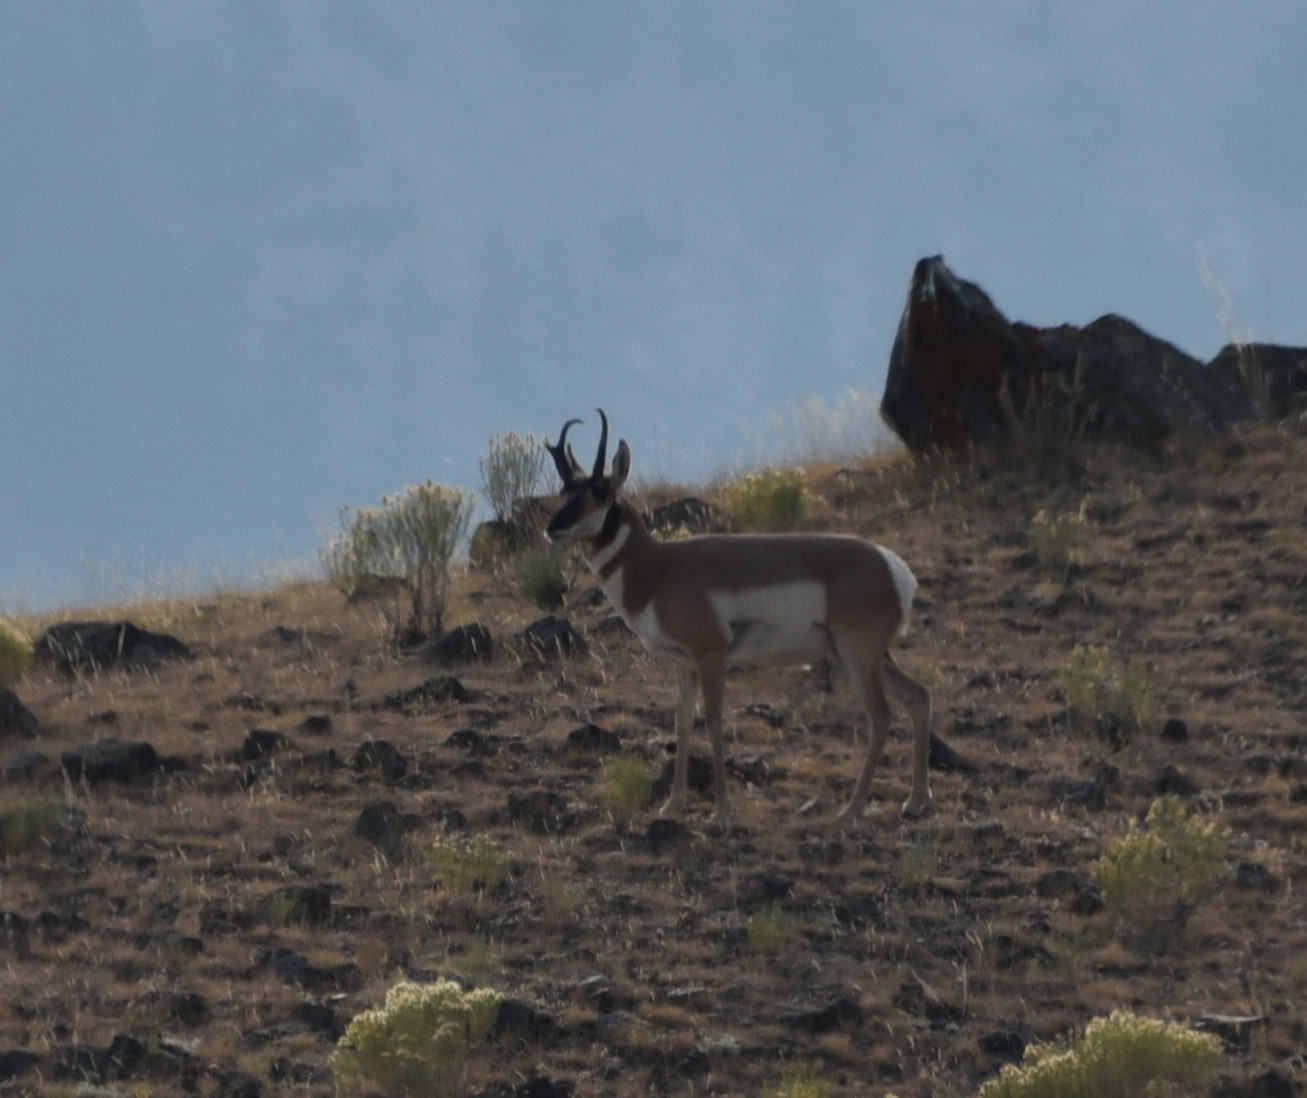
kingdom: Animalia
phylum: Chordata
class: Mammalia
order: Artiodactyla
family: Antilocapridae
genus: Antilocapra
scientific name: Antilocapra americana
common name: Pronghorn
